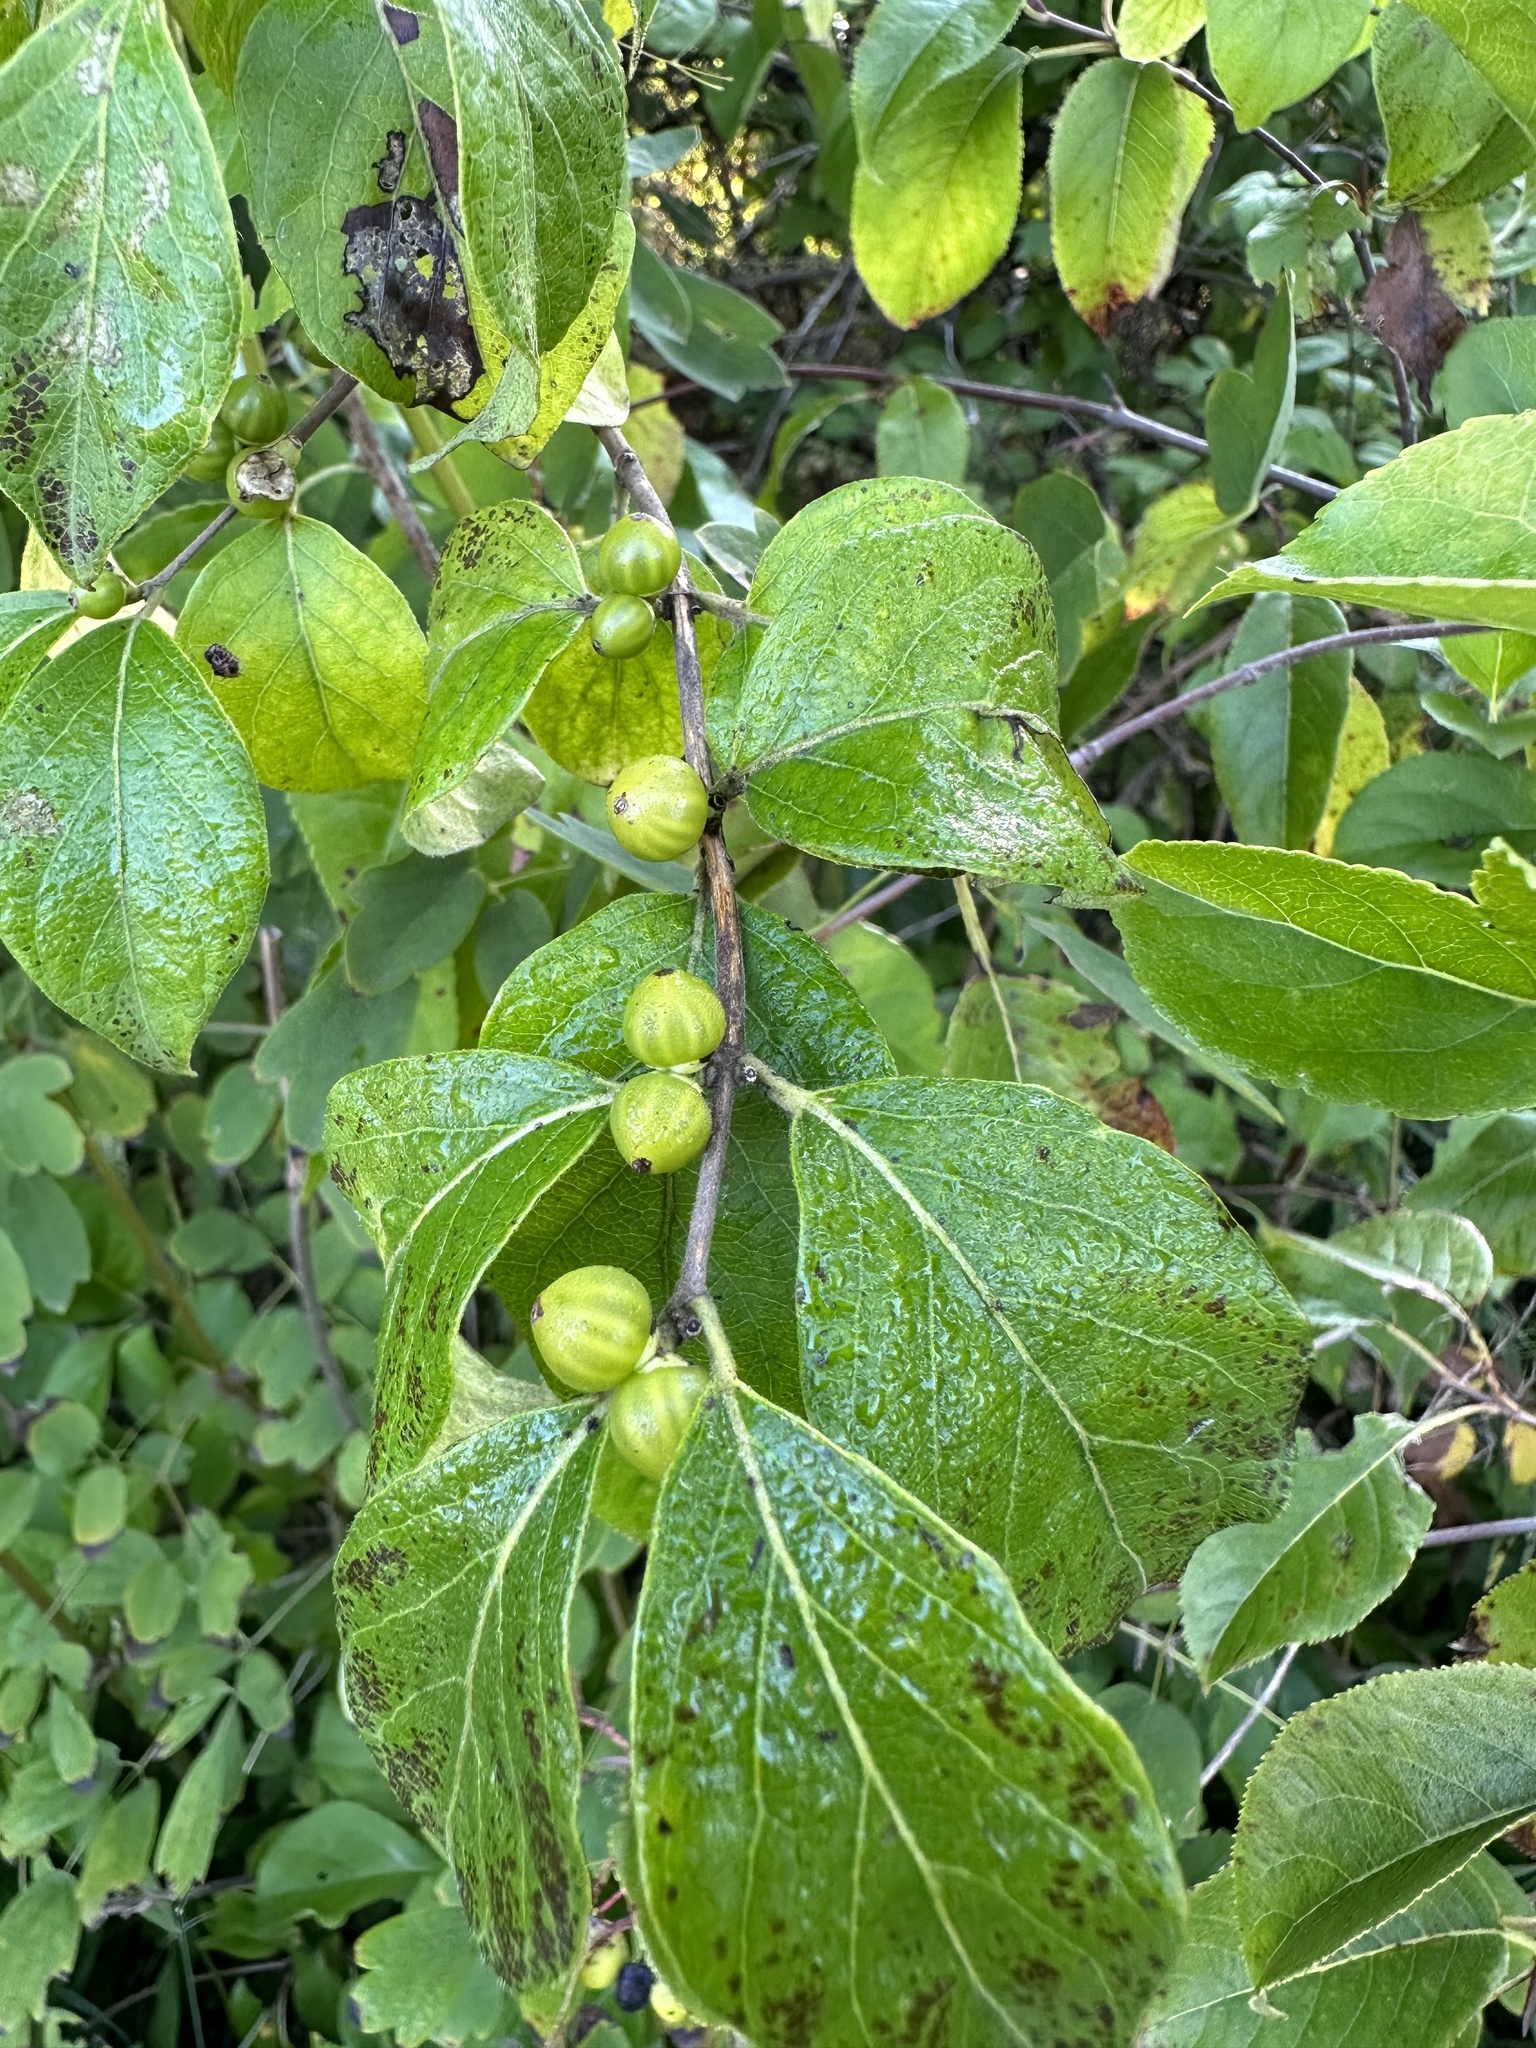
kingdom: Plantae
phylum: Tracheophyta
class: Magnoliopsida
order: Dipsacales
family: Caprifoliaceae
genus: Lonicera
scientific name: Lonicera maackii
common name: Amur honeysuckle
